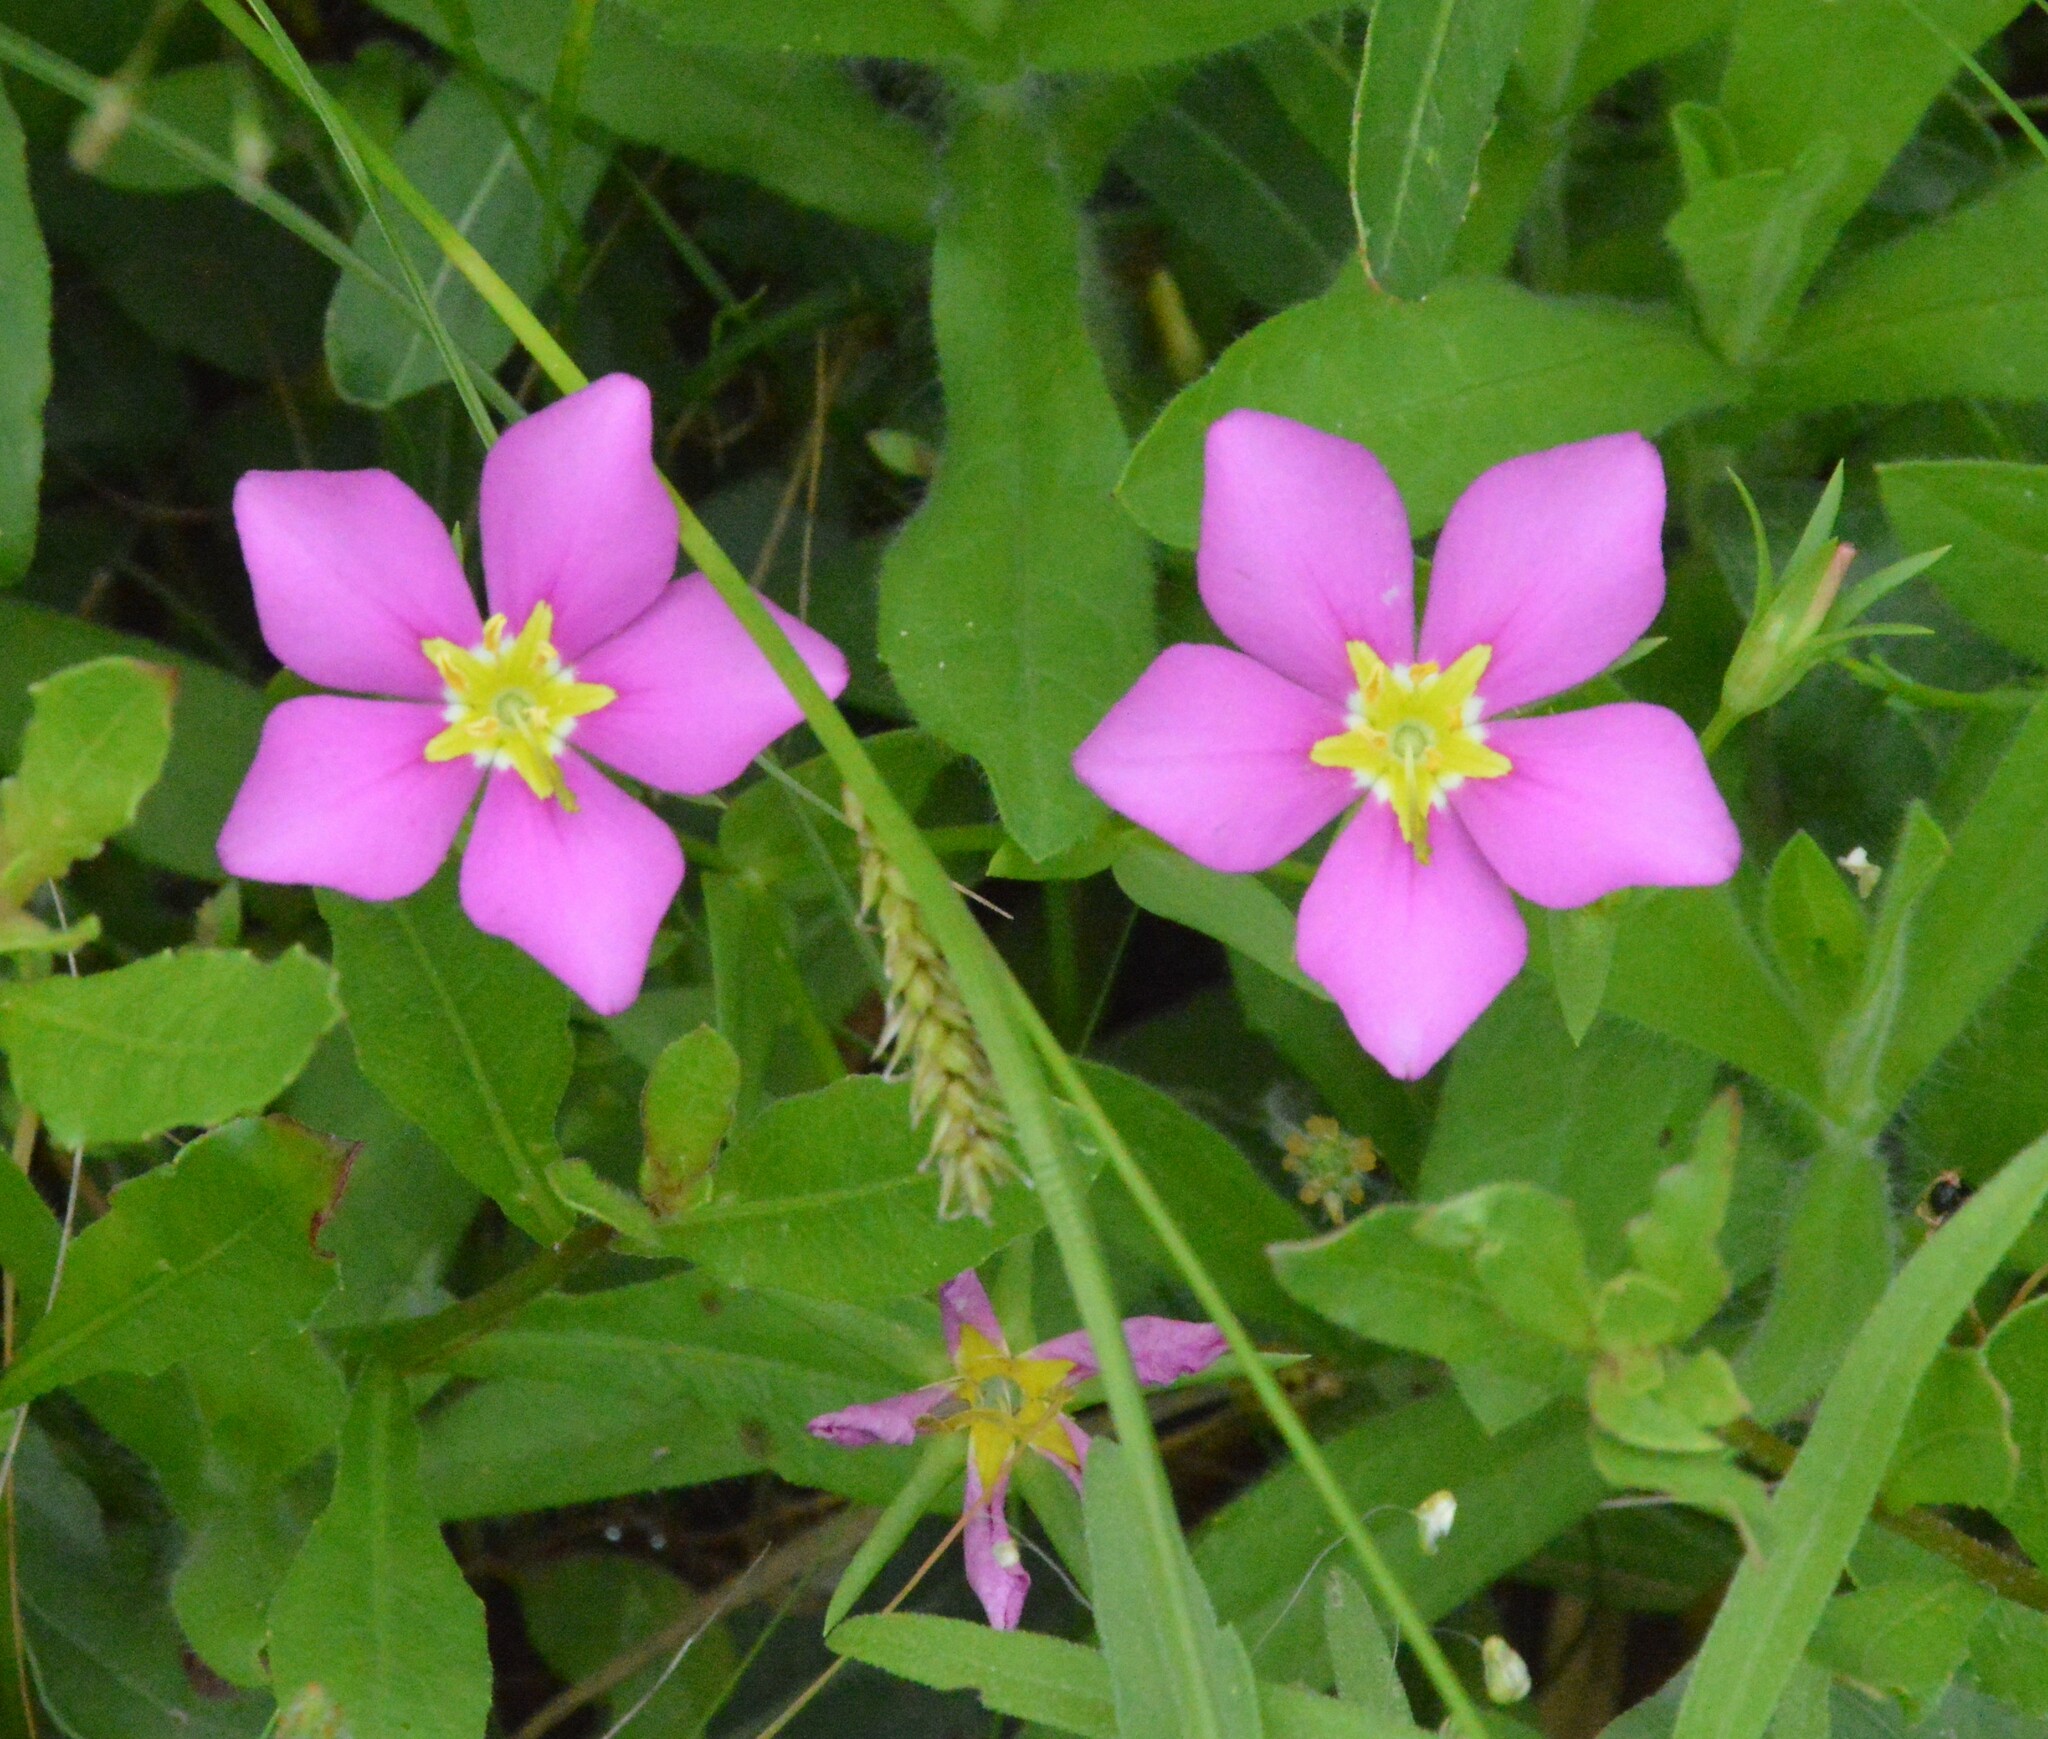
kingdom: Plantae
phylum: Tracheophyta
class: Magnoliopsida
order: Gentianales
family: Gentianaceae
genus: Sabatia
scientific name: Sabatia campestris
